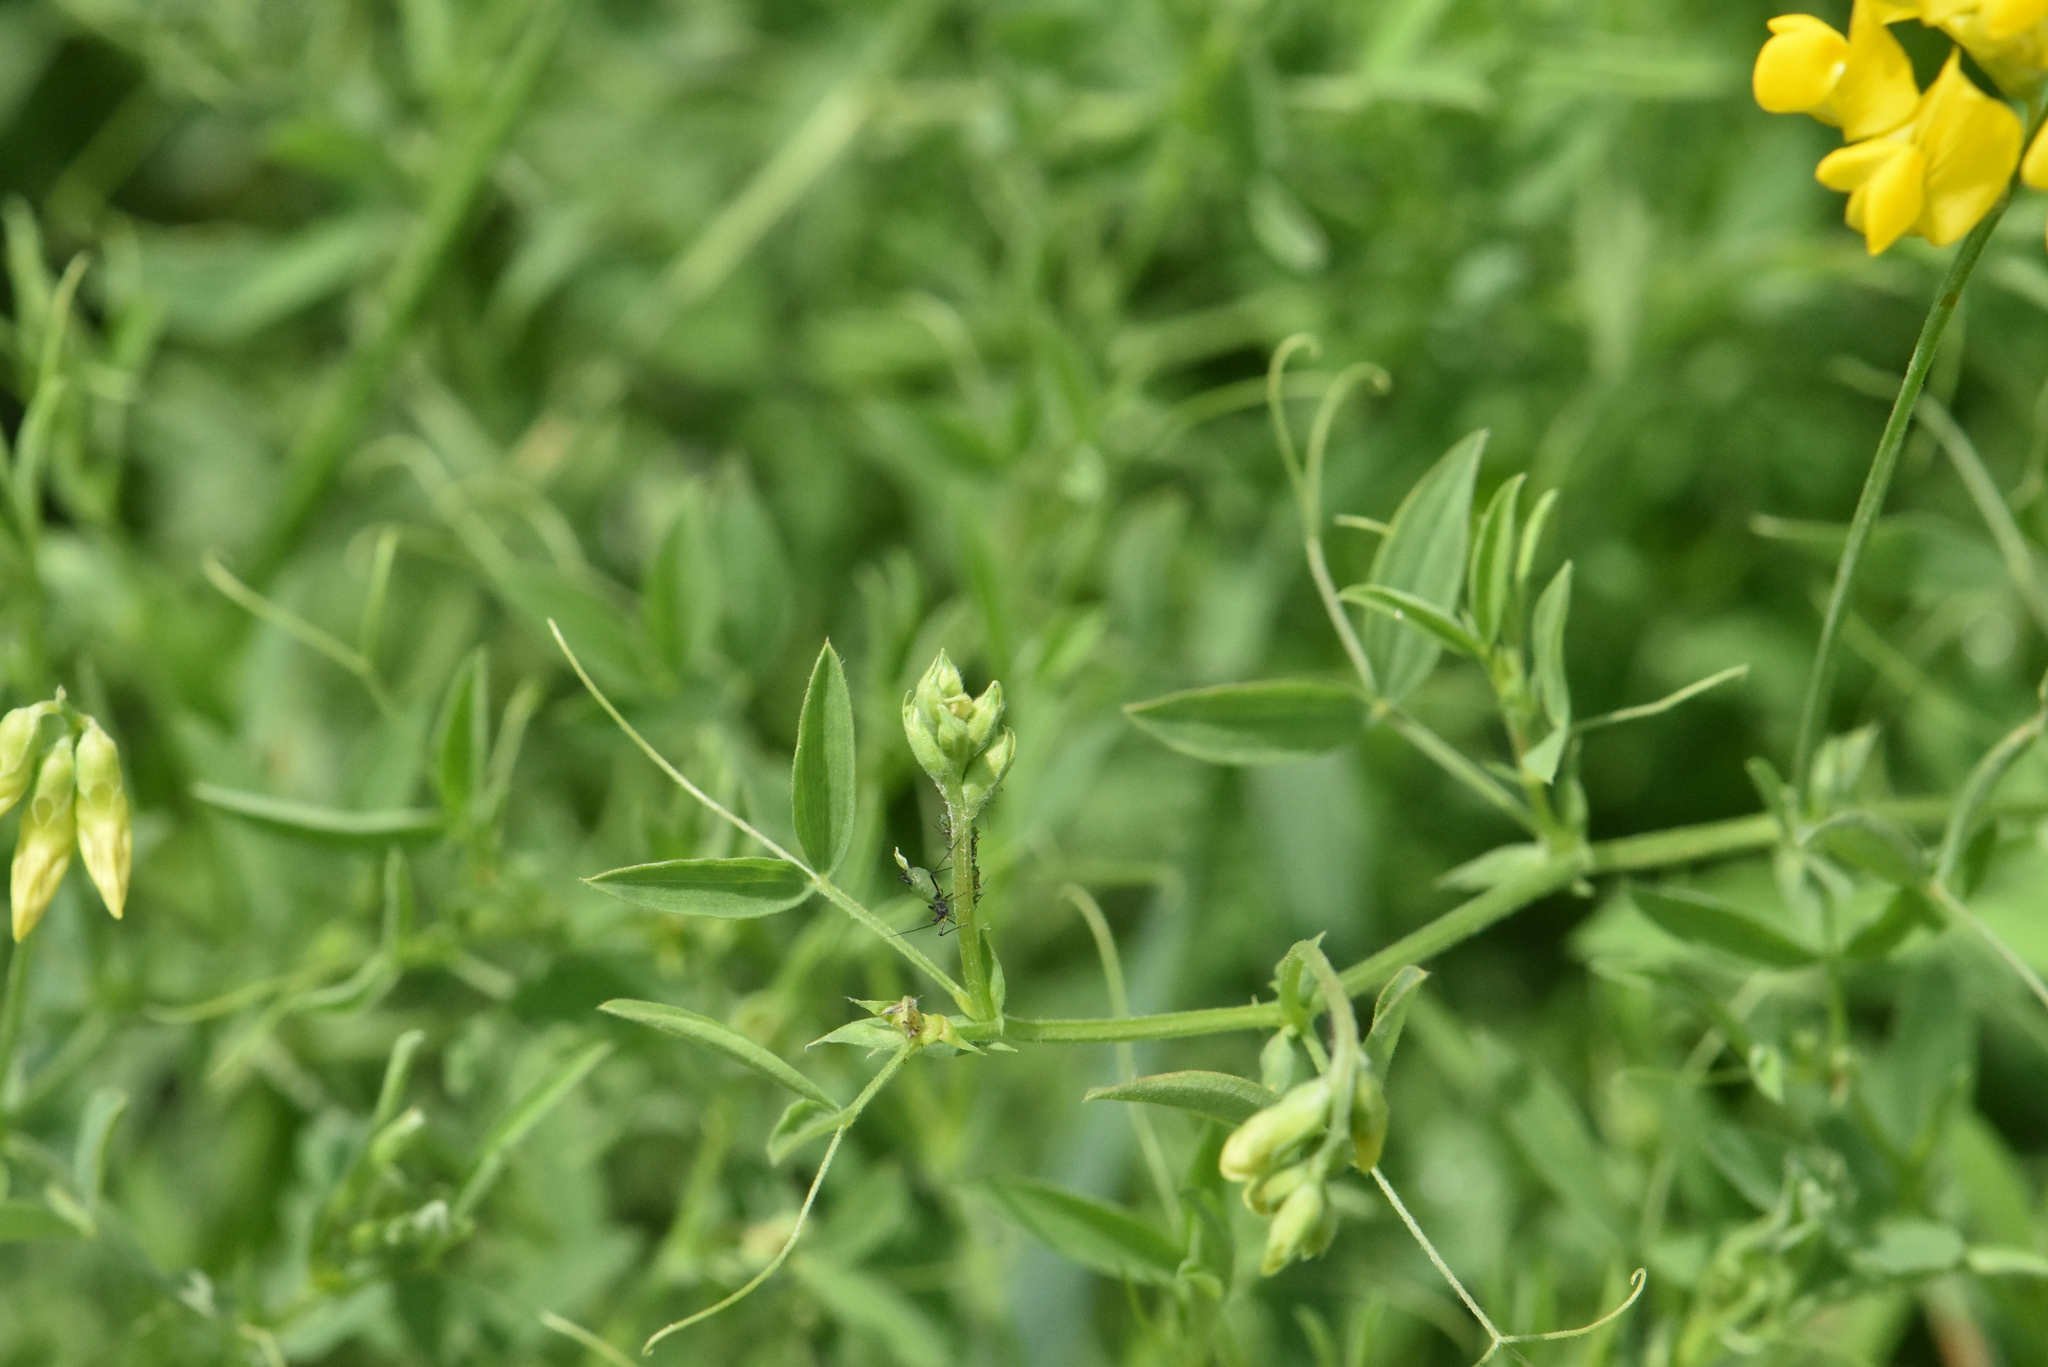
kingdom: Plantae
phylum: Tracheophyta
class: Magnoliopsida
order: Fabales
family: Fabaceae
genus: Lathyrus
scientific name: Lathyrus pratensis
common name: Meadow vetchling
